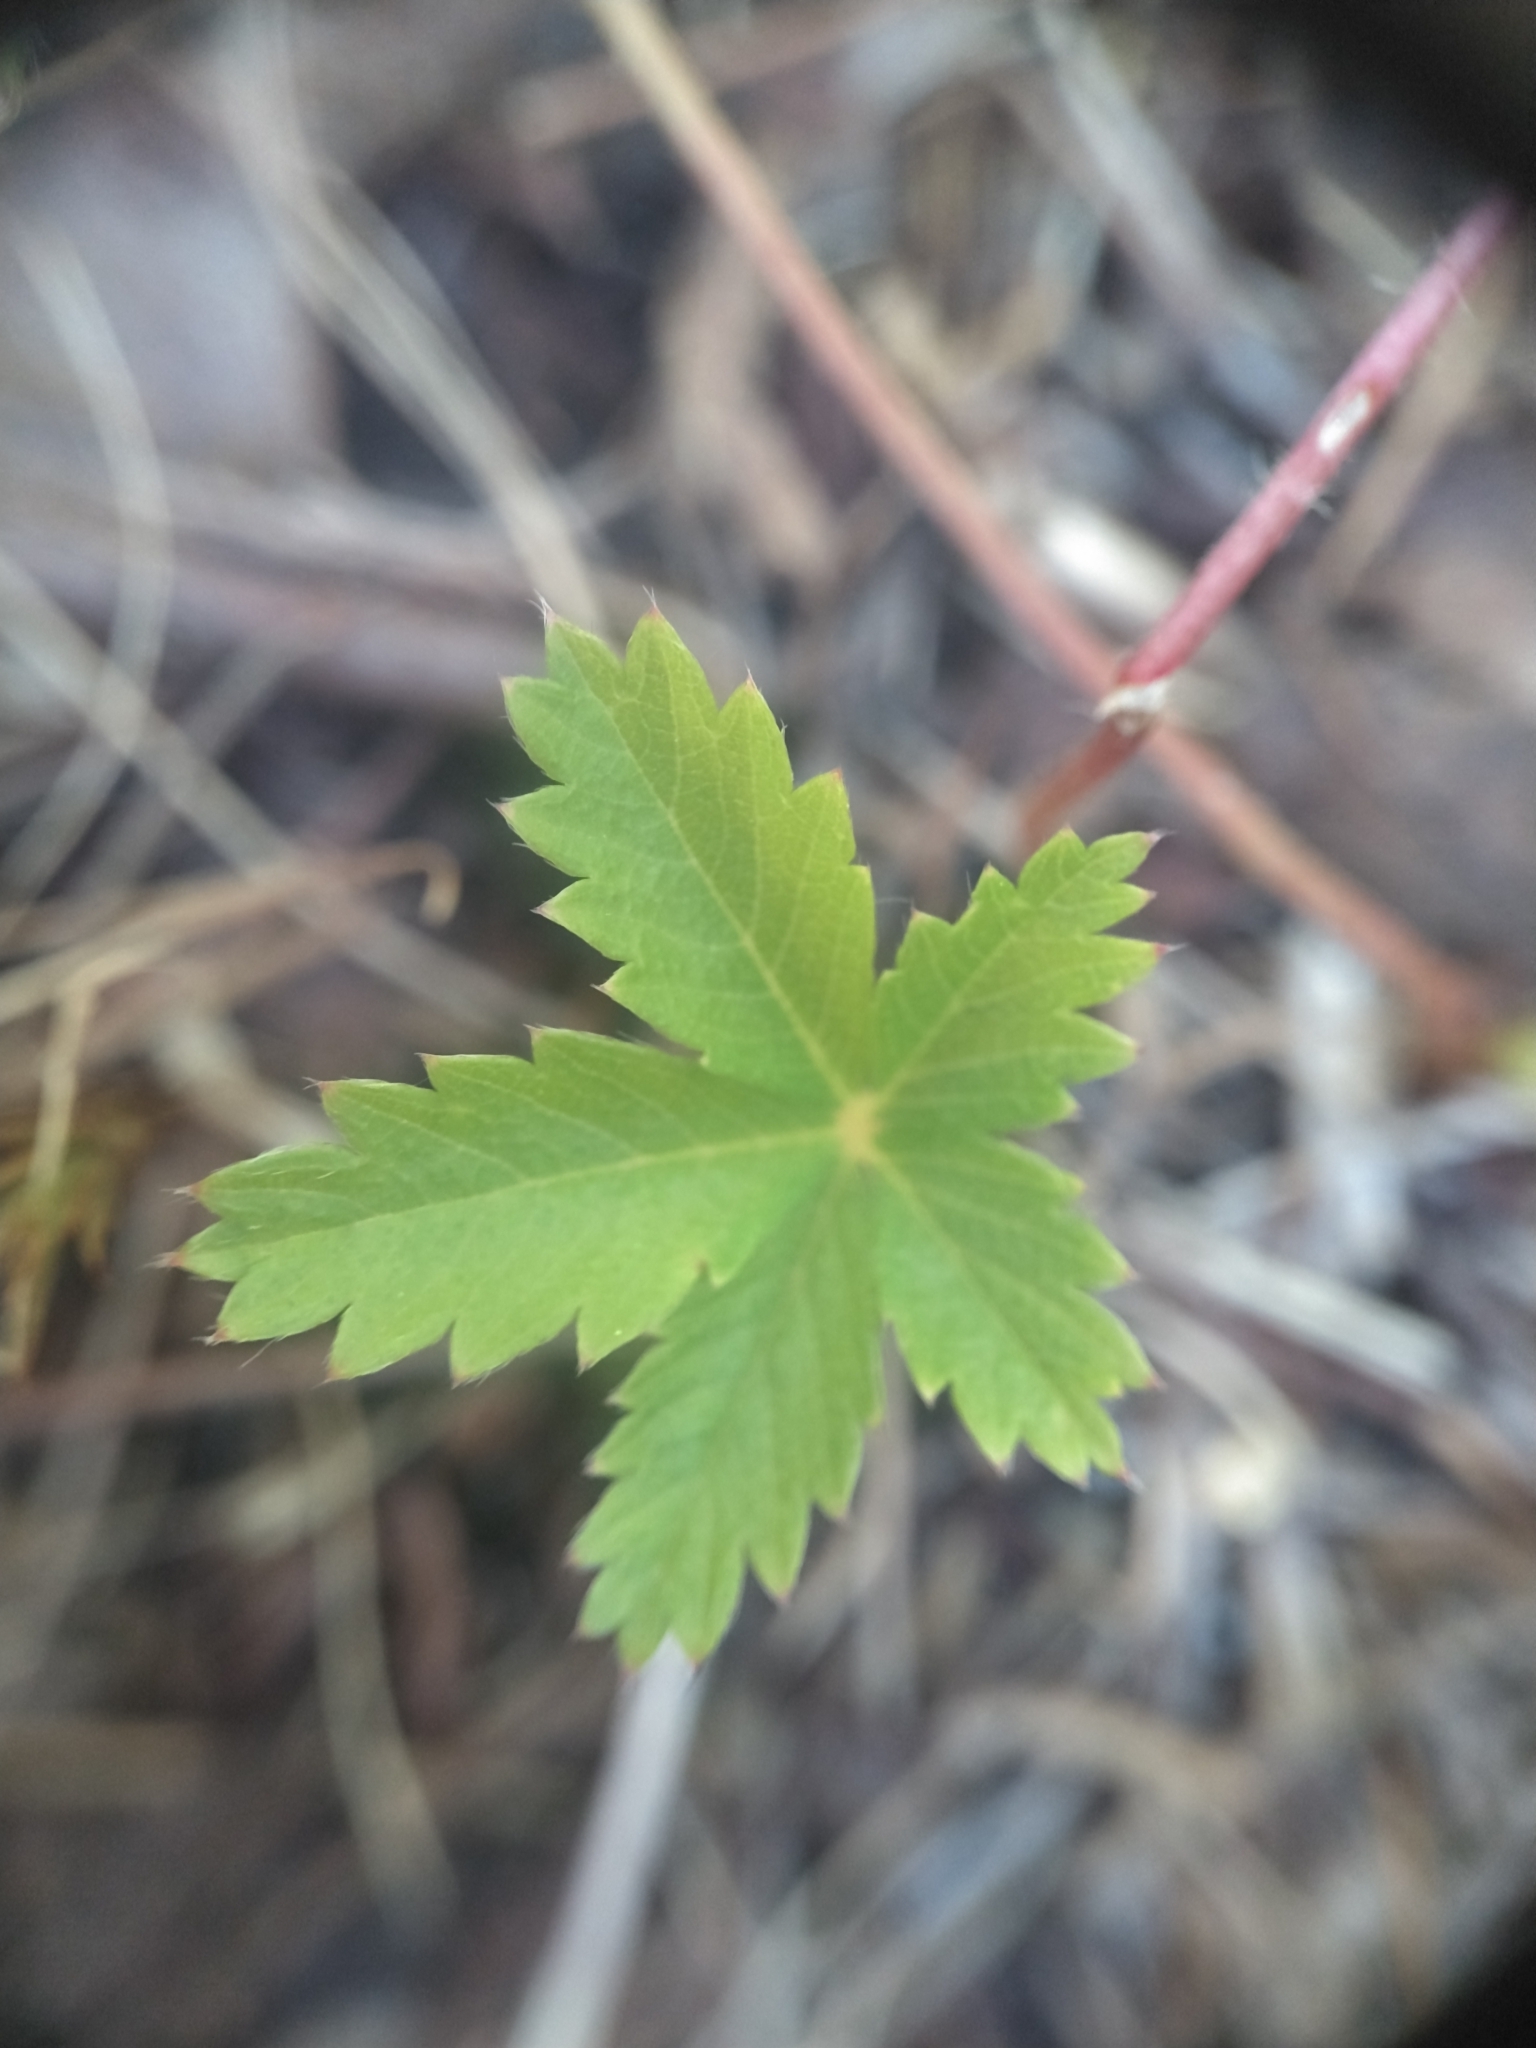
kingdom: Plantae
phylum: Tracheophyta
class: Magnoliopsida
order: Rosales
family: Rosaceae
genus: Potentilla
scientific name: Potentilla simplex
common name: Old field cinquefoil
